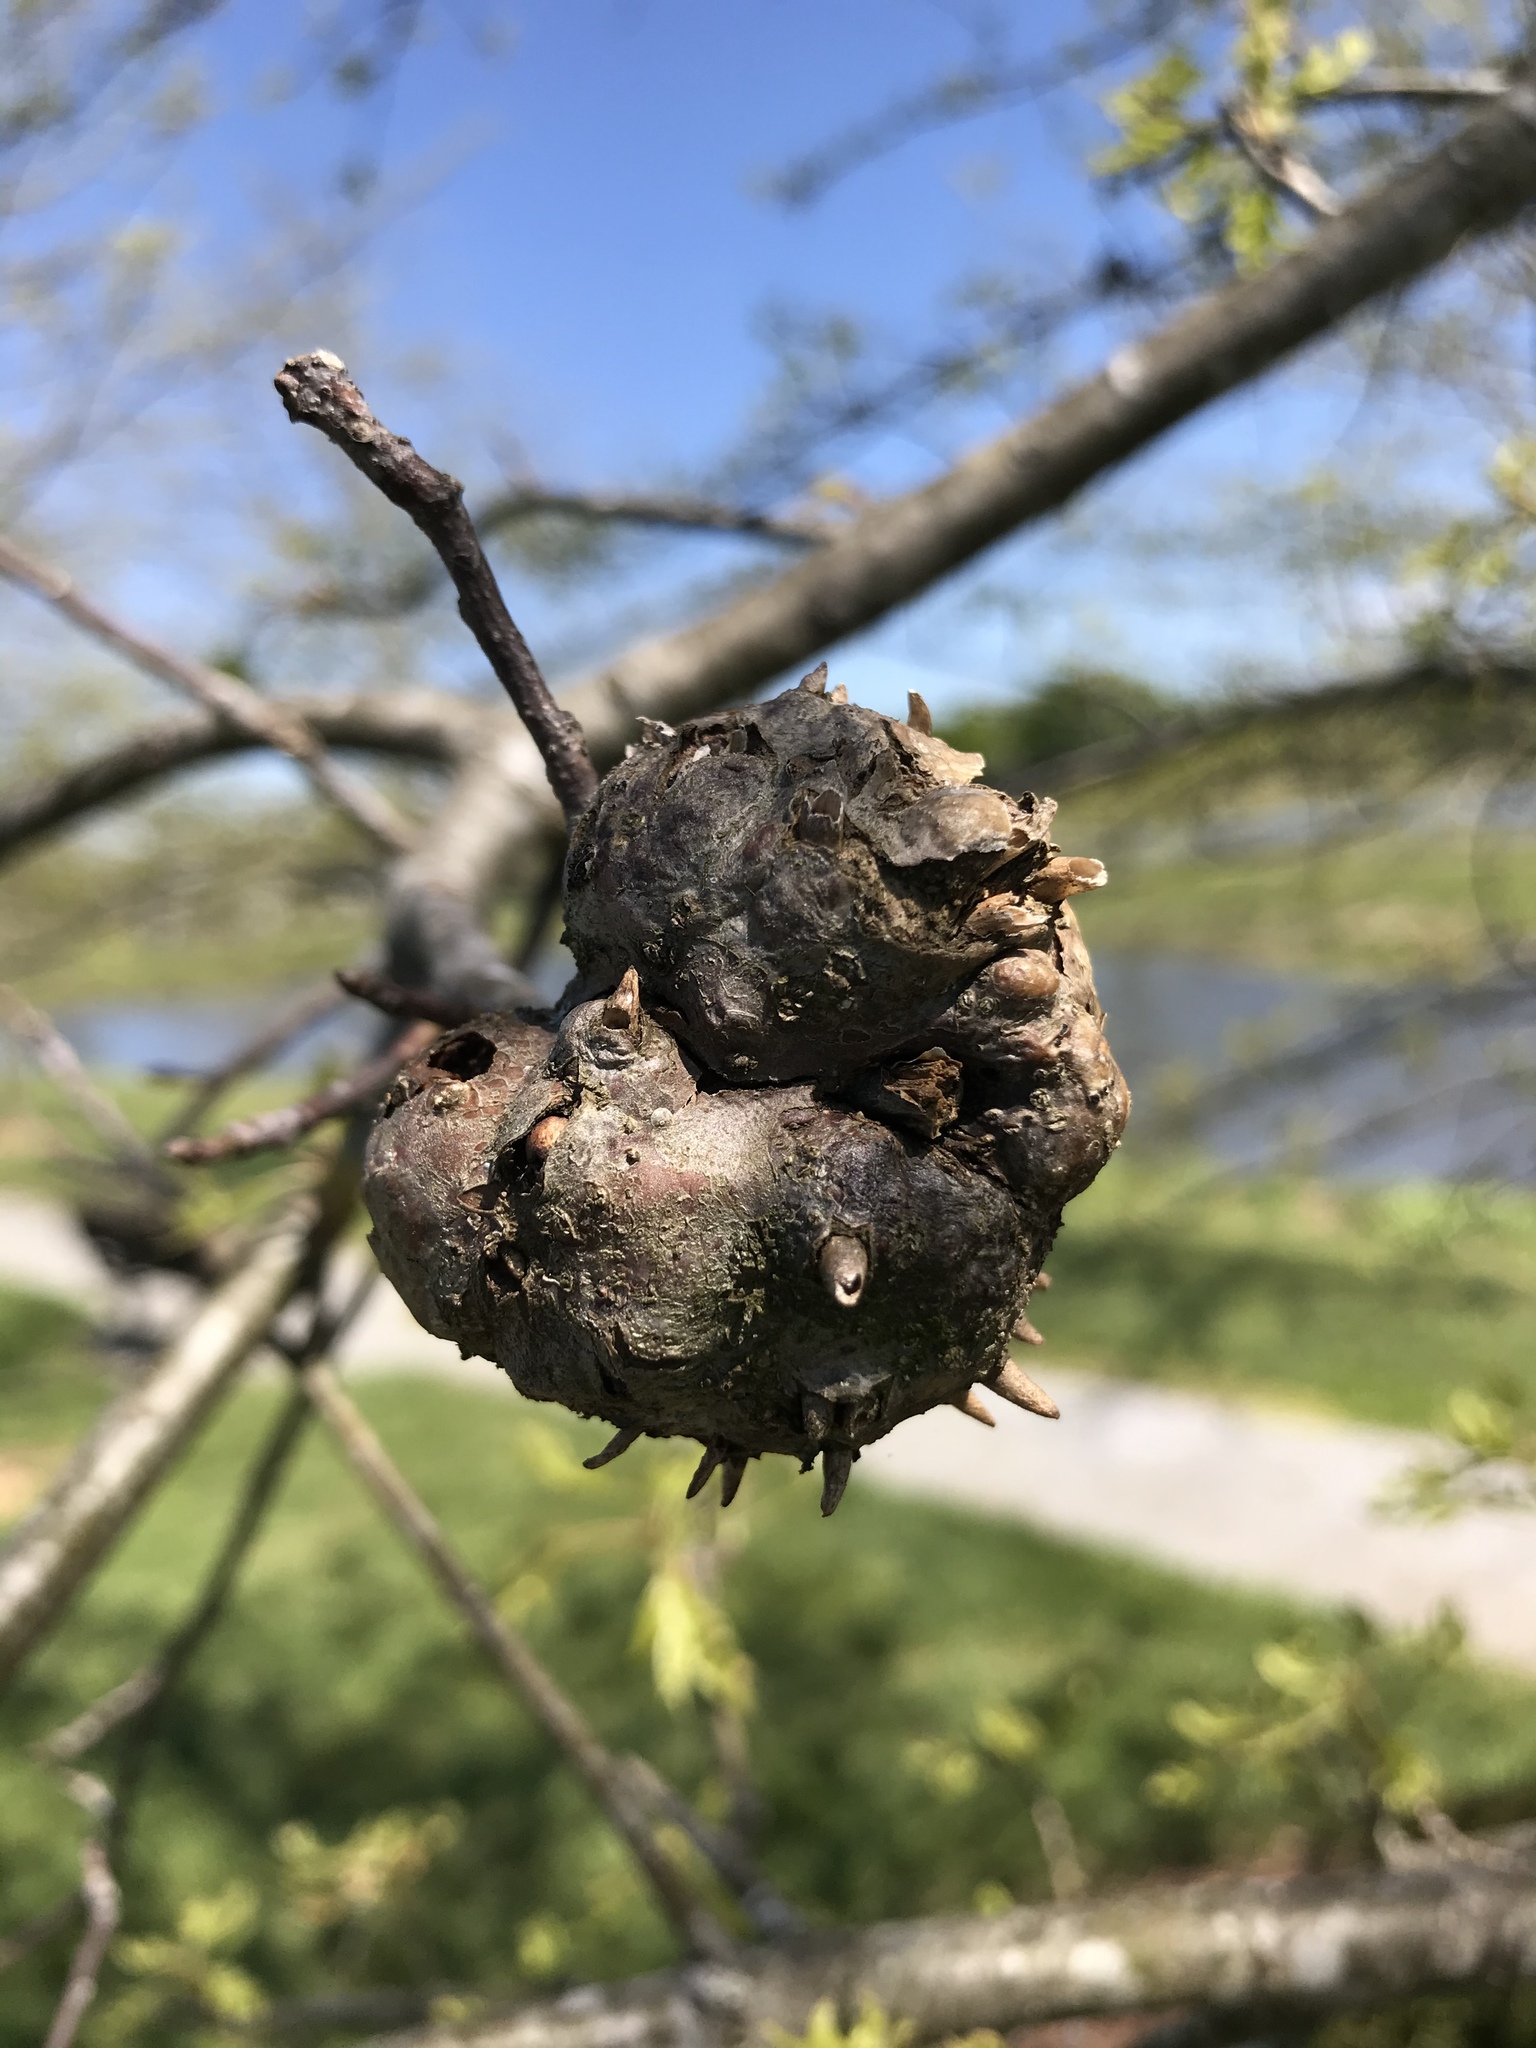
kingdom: Animalia
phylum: Arthropoda
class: Insecta
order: Hymenoptera
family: Cynipidae
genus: Callirhytis
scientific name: Callirhytis
